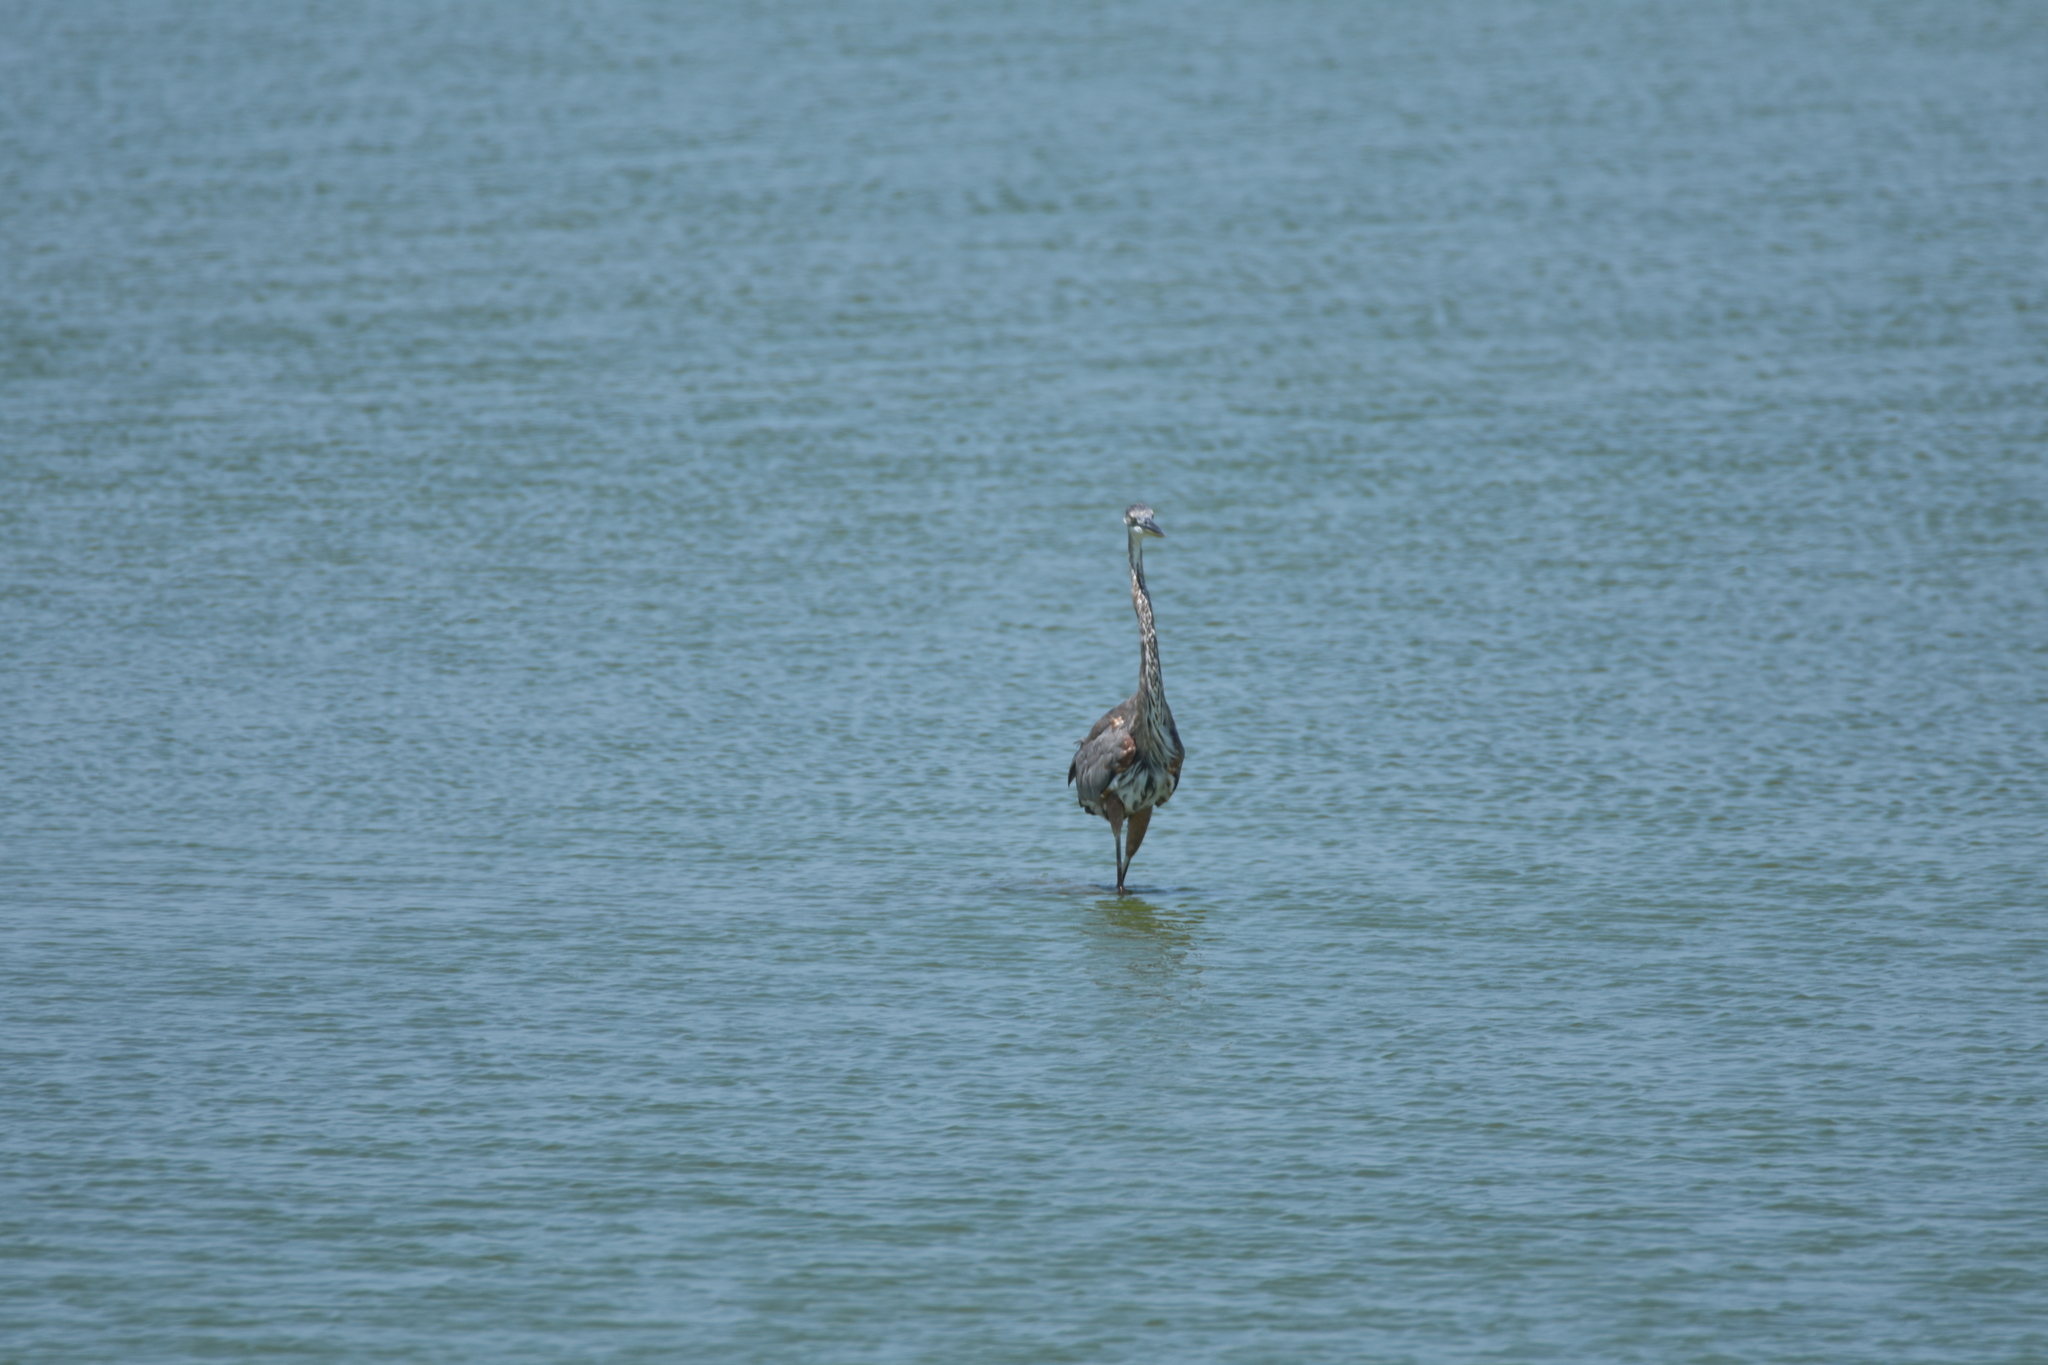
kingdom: Animalia
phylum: Chordata
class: Aves
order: Pelecaniformes
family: Ardeidae
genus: Ardea
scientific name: Ardea herodias
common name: Great blue heron
